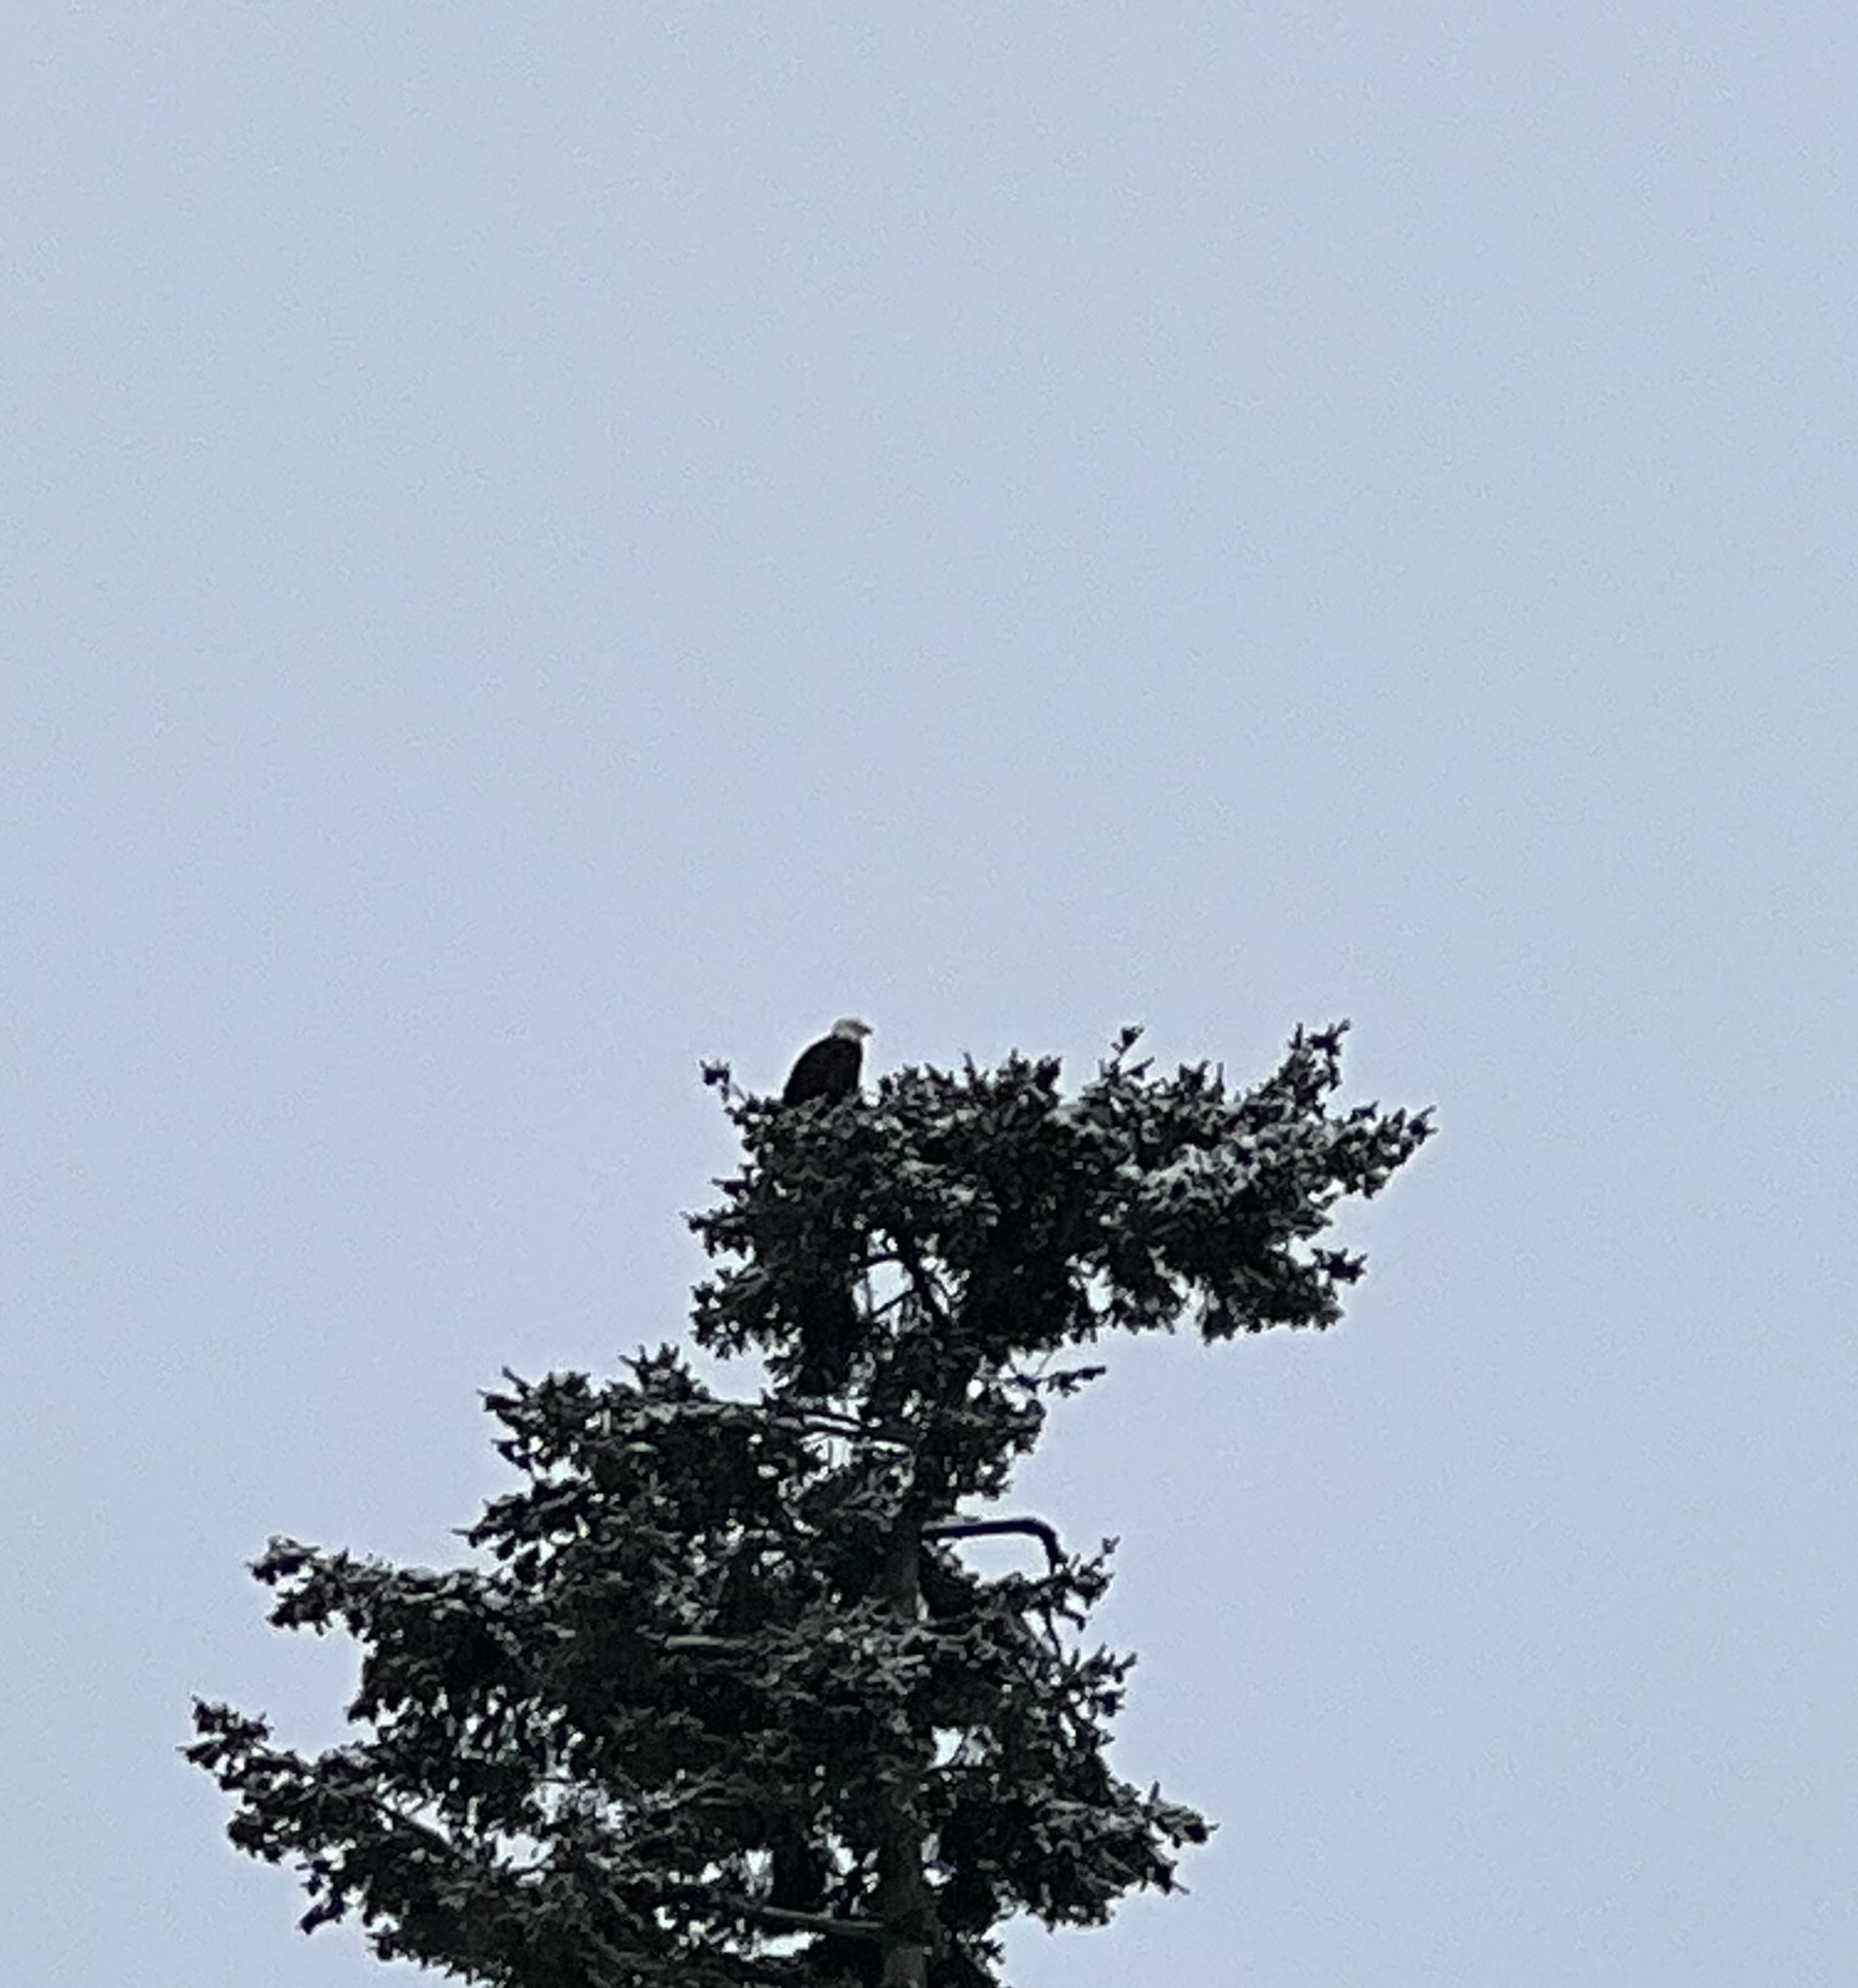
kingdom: Animalia
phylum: Chordata
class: Aves
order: Accipitriformes
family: Accipitridae
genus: Haliaeetus
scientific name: Haliaeetus leucocephalus
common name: Bald eagle
